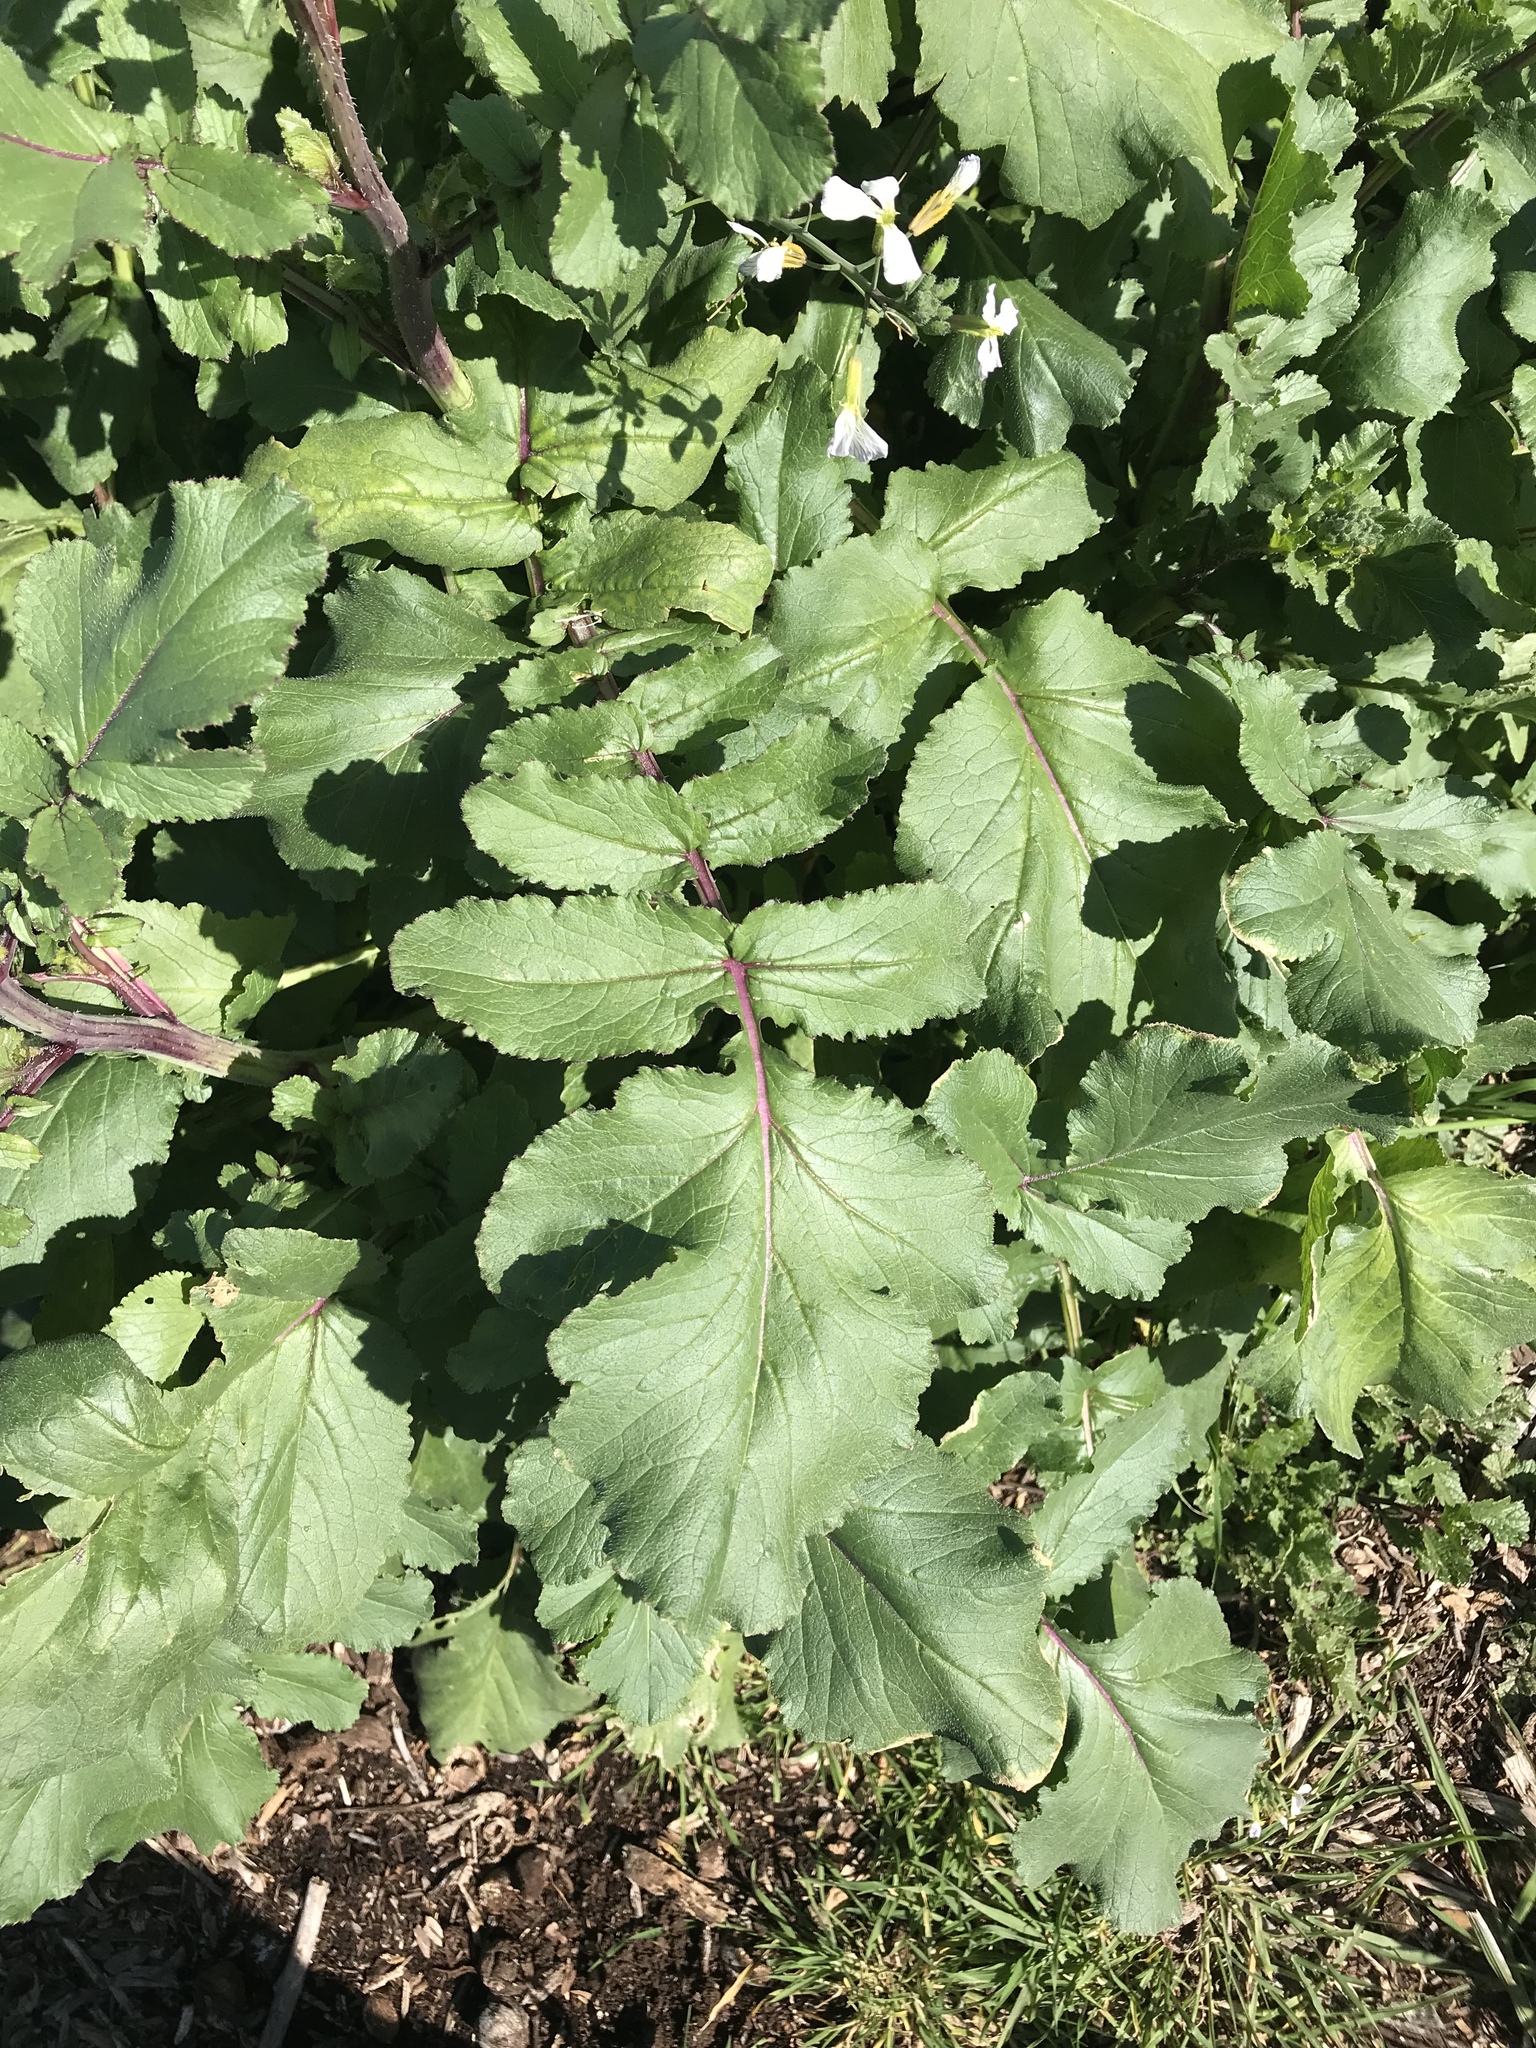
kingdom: Plantae
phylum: Tracheophyta
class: Magnoliopsida
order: Brassicales
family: Brassicaceae
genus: Raphanus
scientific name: Raphanus sativus
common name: Cultivated radish
